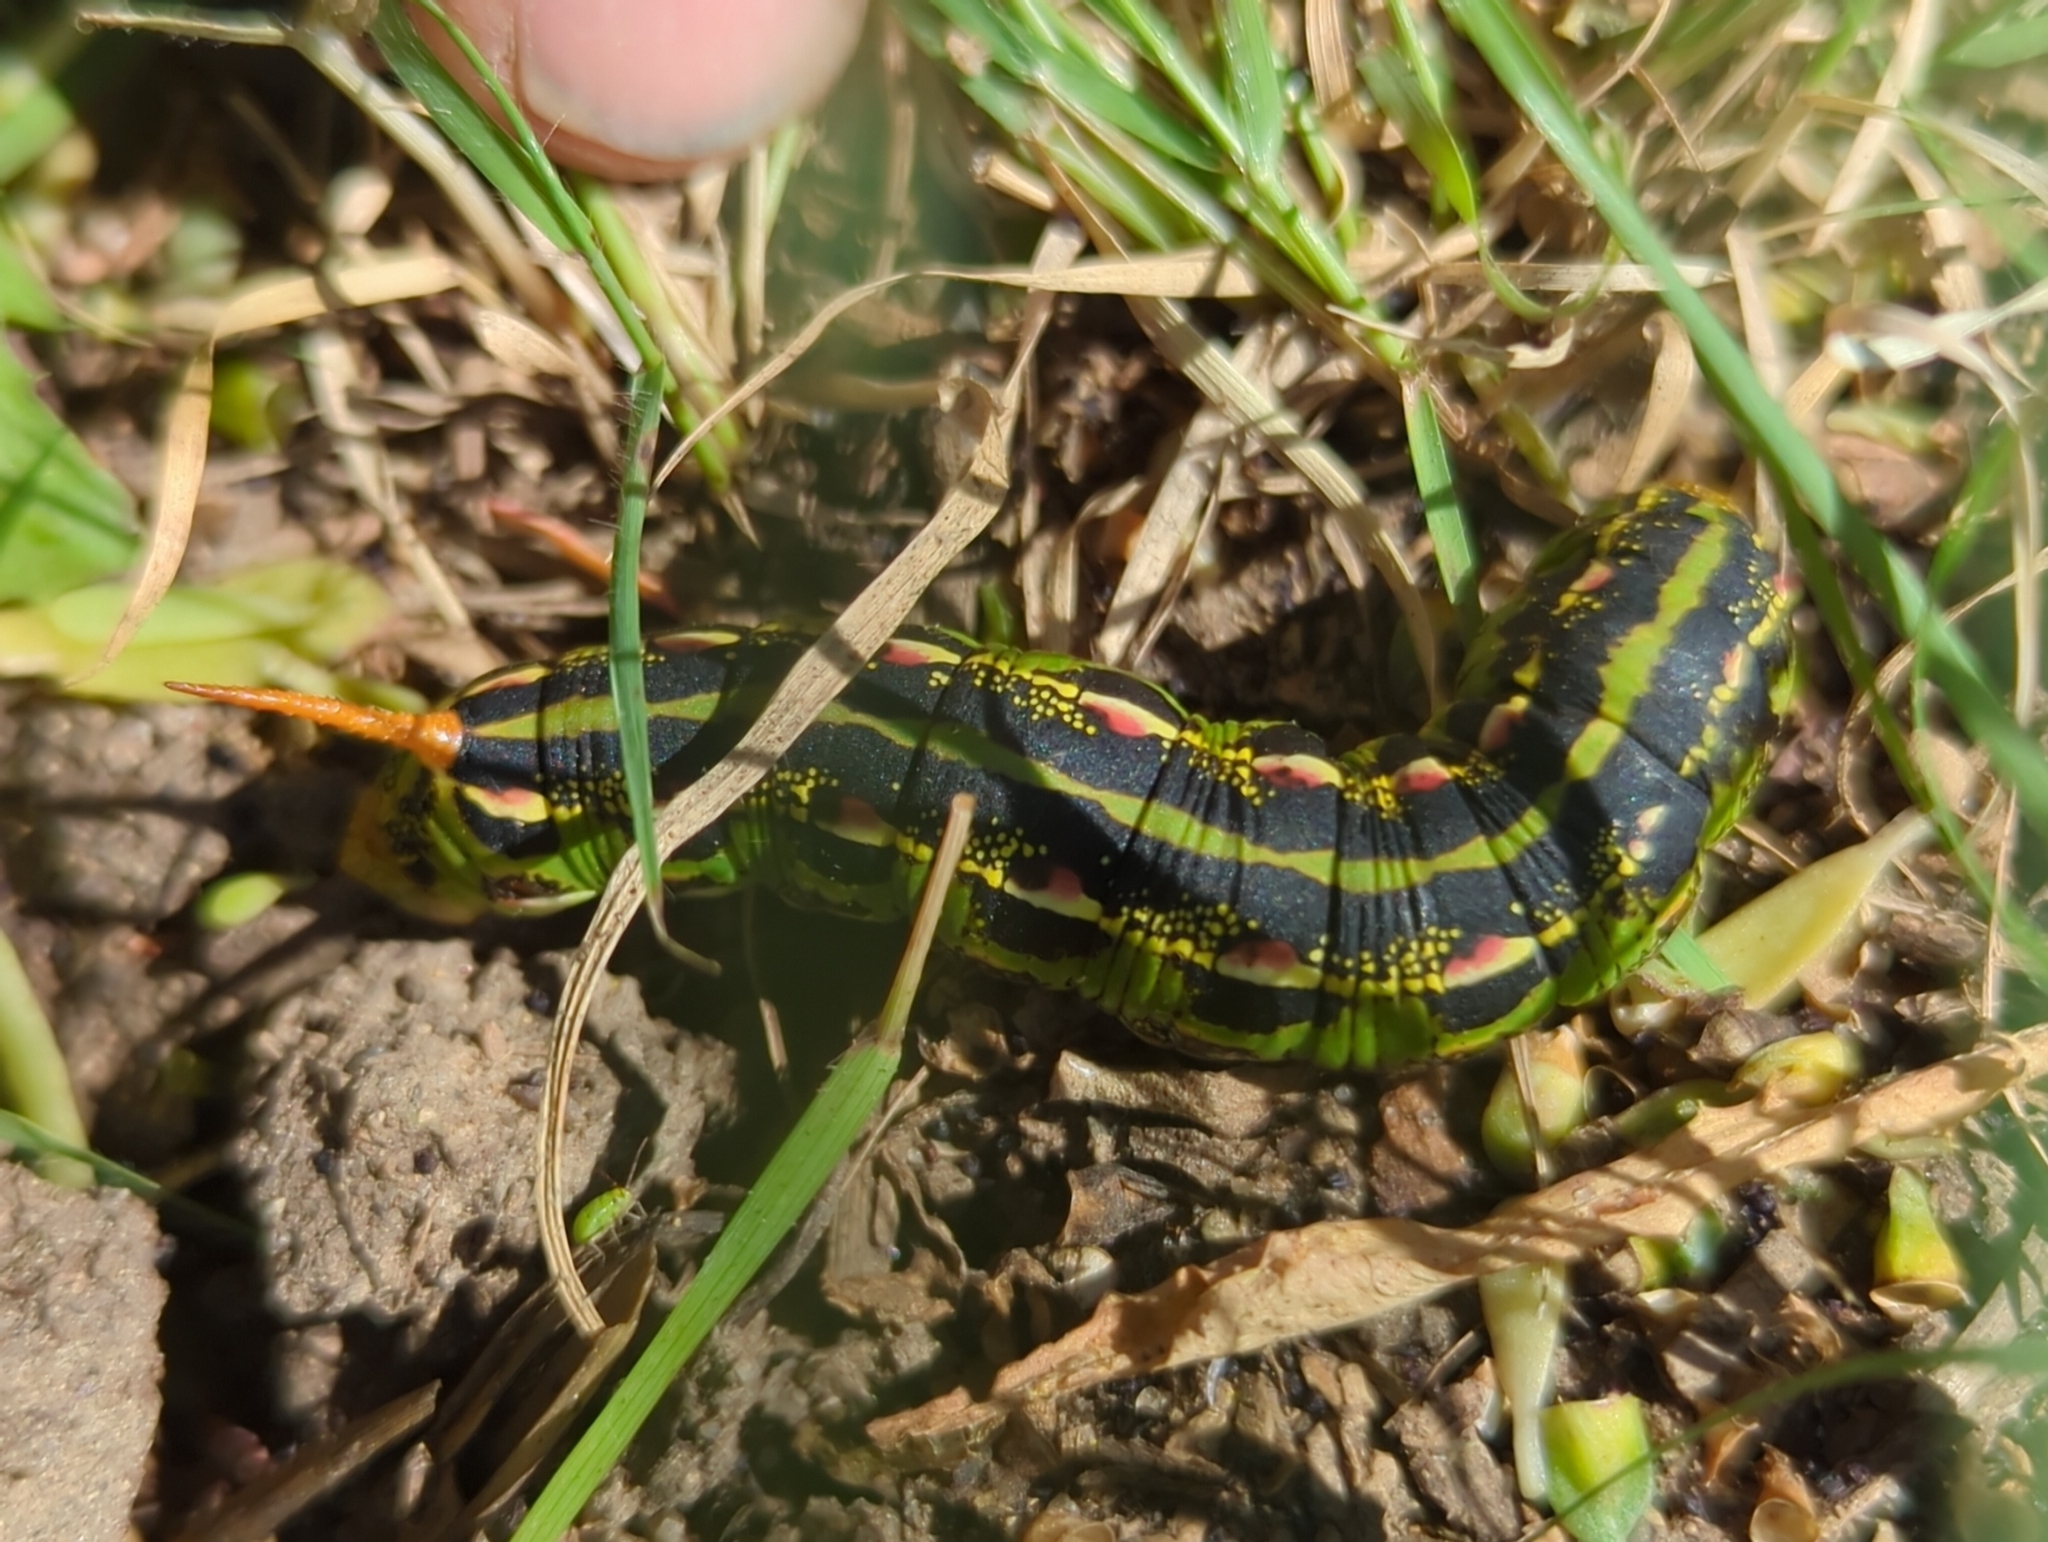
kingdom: Animalia
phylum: Arthropoda
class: Insecta
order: Lepidoptera
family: Sphingidae
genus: Hyles
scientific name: Hyles lineata
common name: White-lined sphinx
